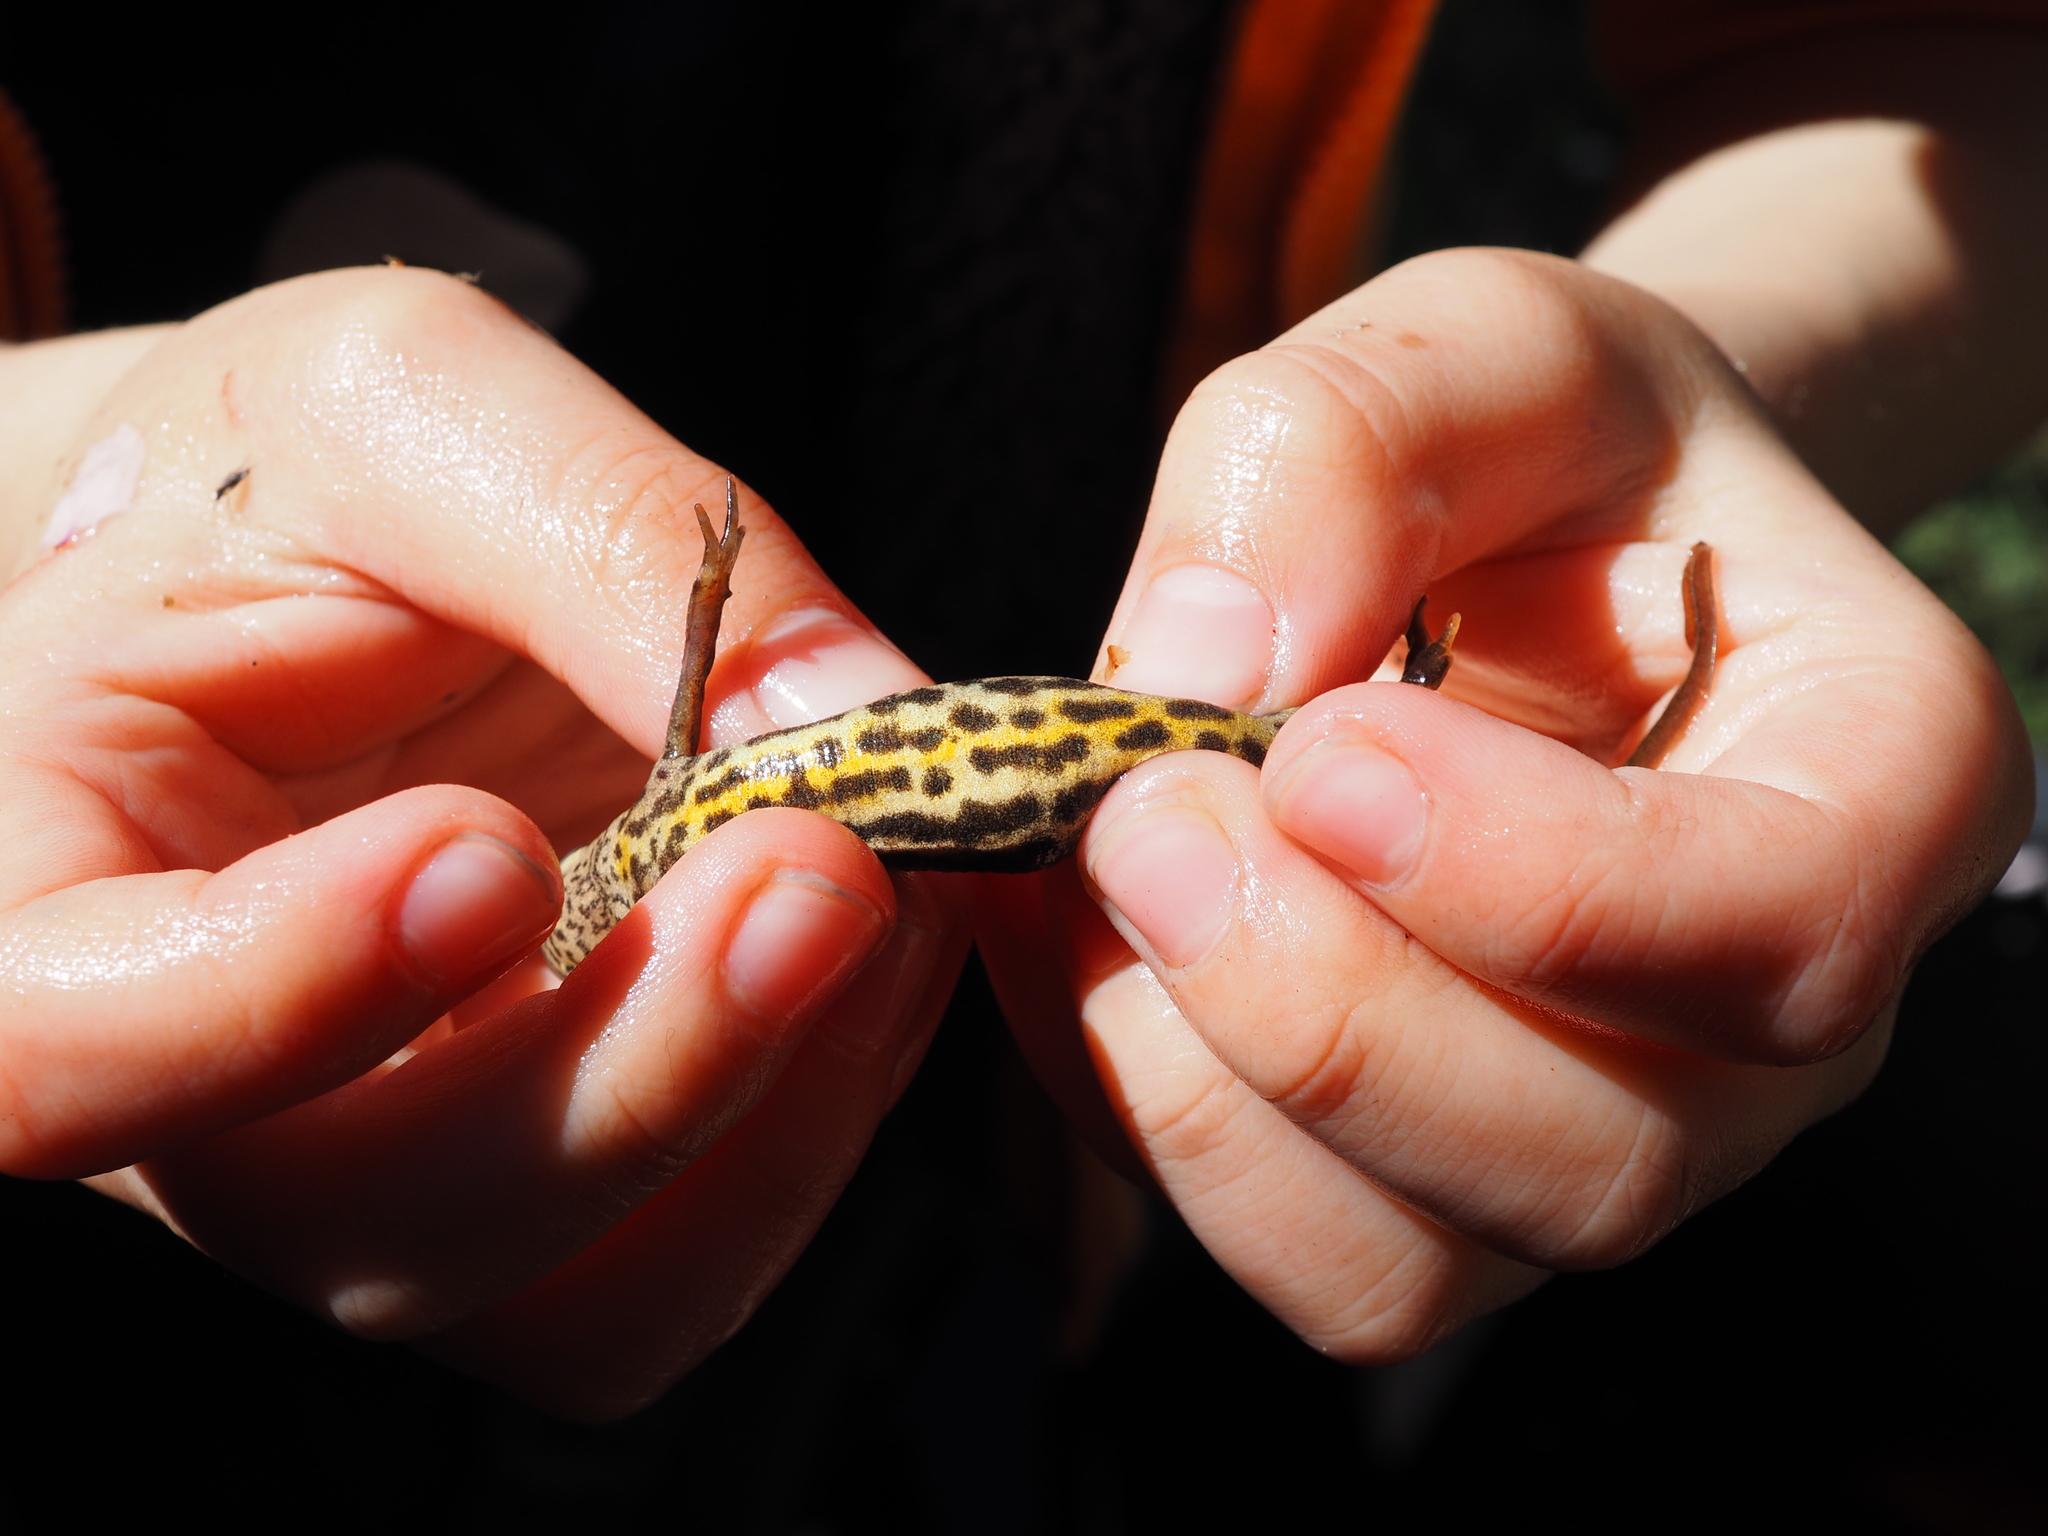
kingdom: Animalia
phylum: Chordata
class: Amphibia
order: Caudata
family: Salamandridae
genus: Lissotriton
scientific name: Lissotriton vulgaris
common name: Smooth newt
